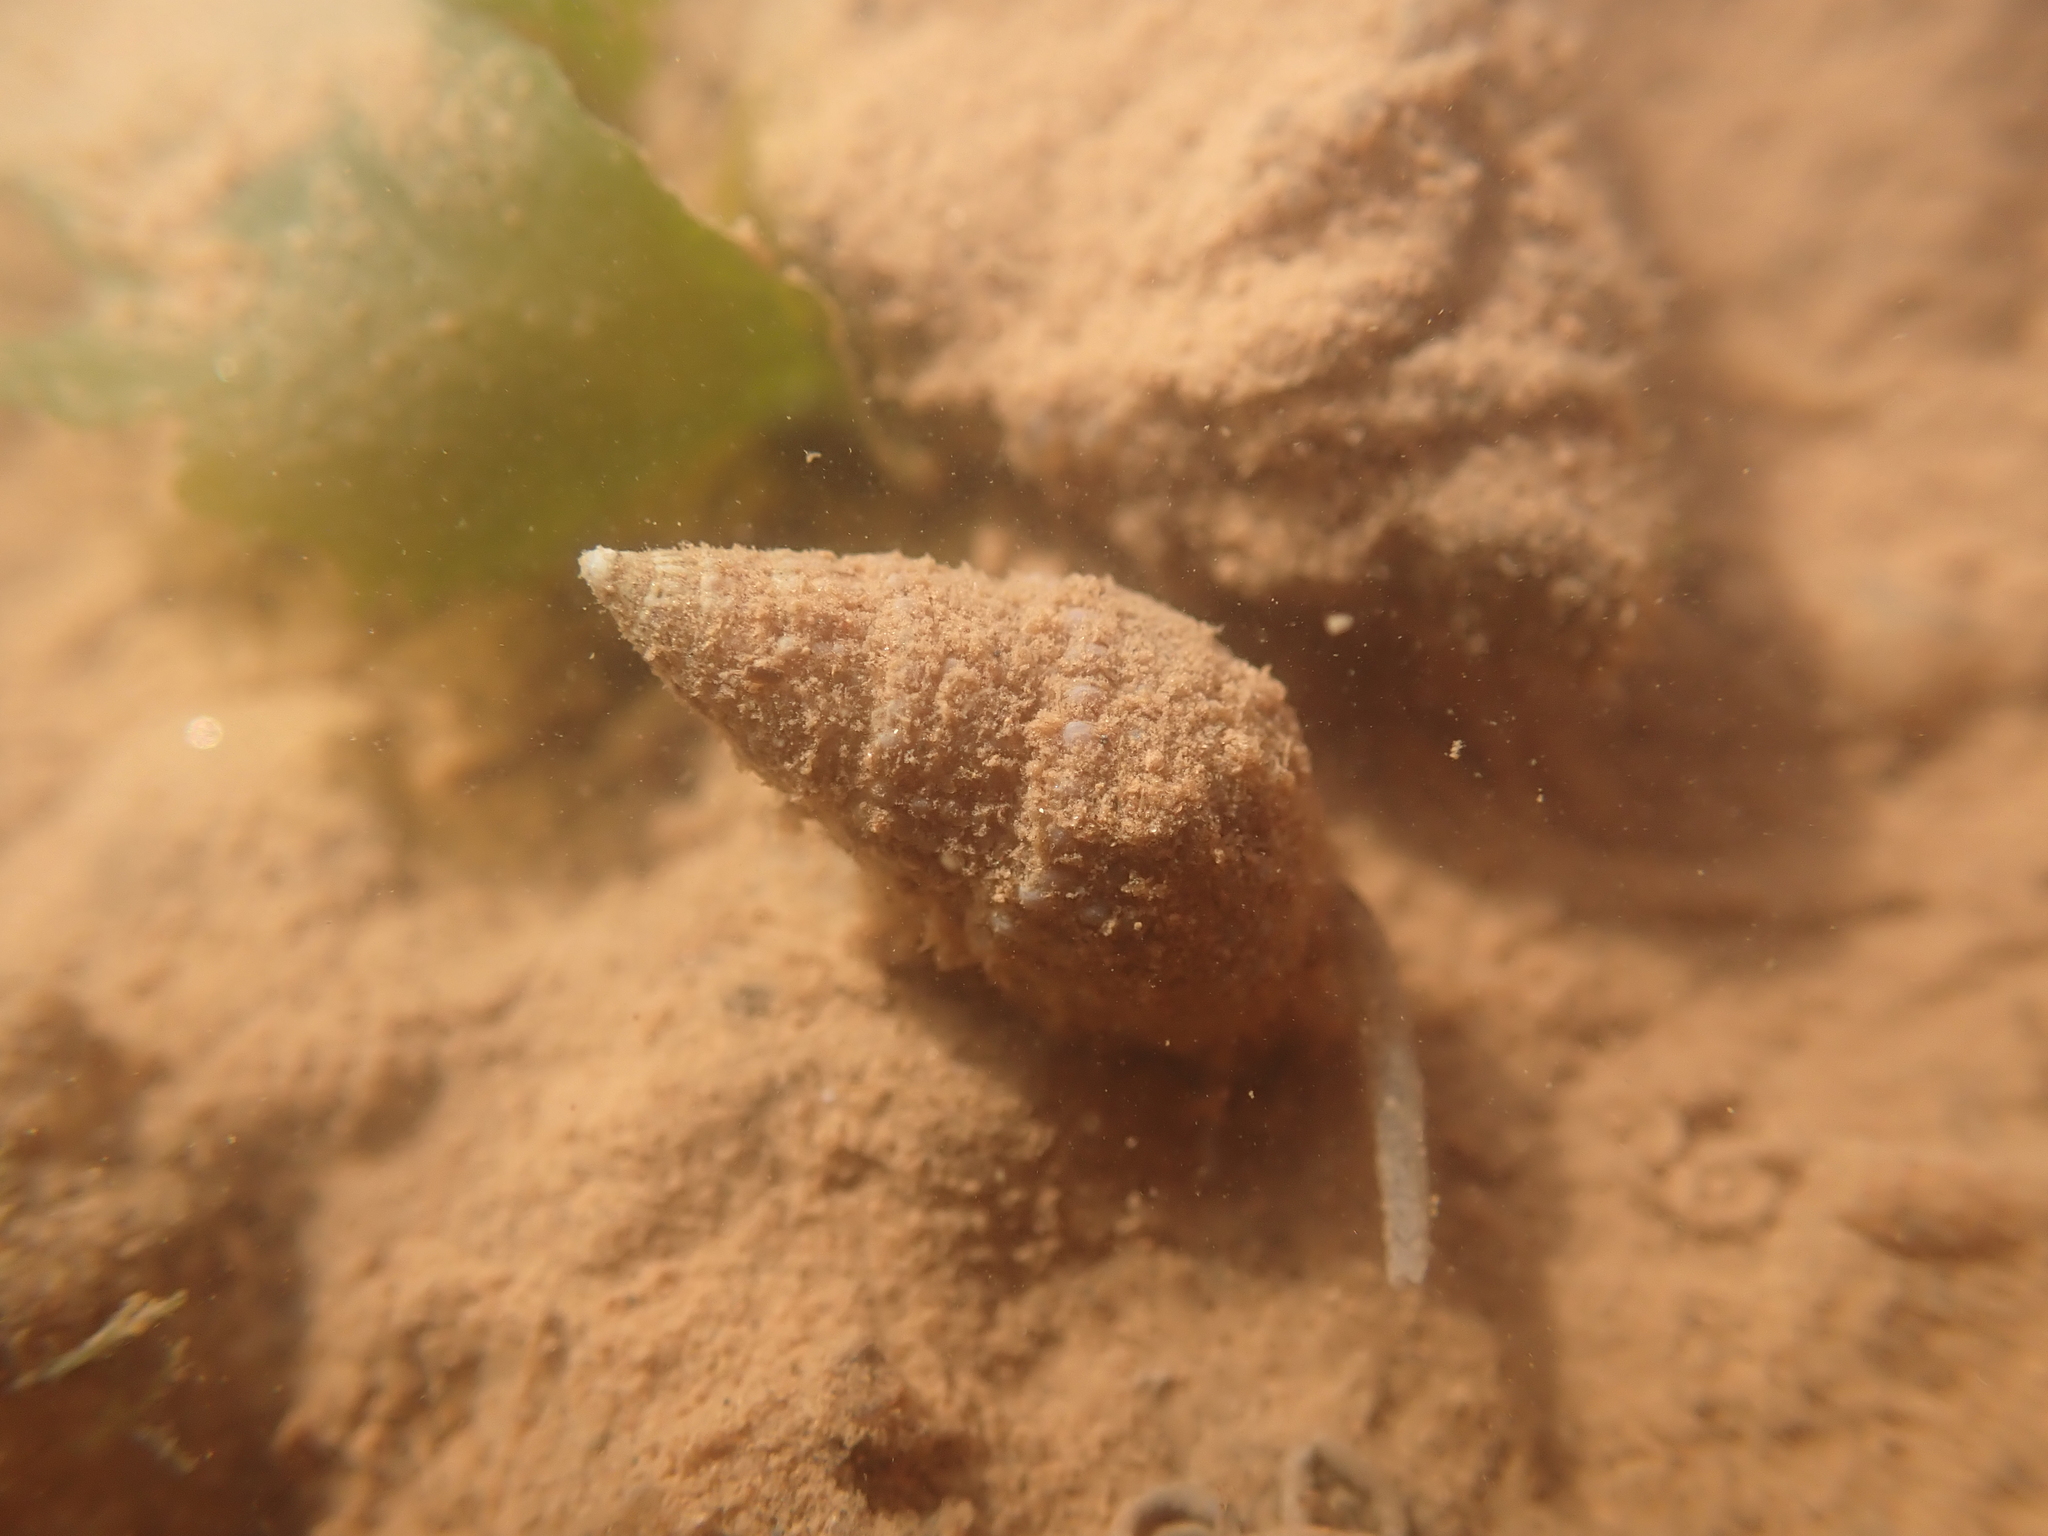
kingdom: Animalia
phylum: Mollusca
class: Gastropoda
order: Neogastropoda
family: Nassariidae
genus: Ilyanassa
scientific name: Ilyanassa trivittata
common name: Three-line mudsnail
